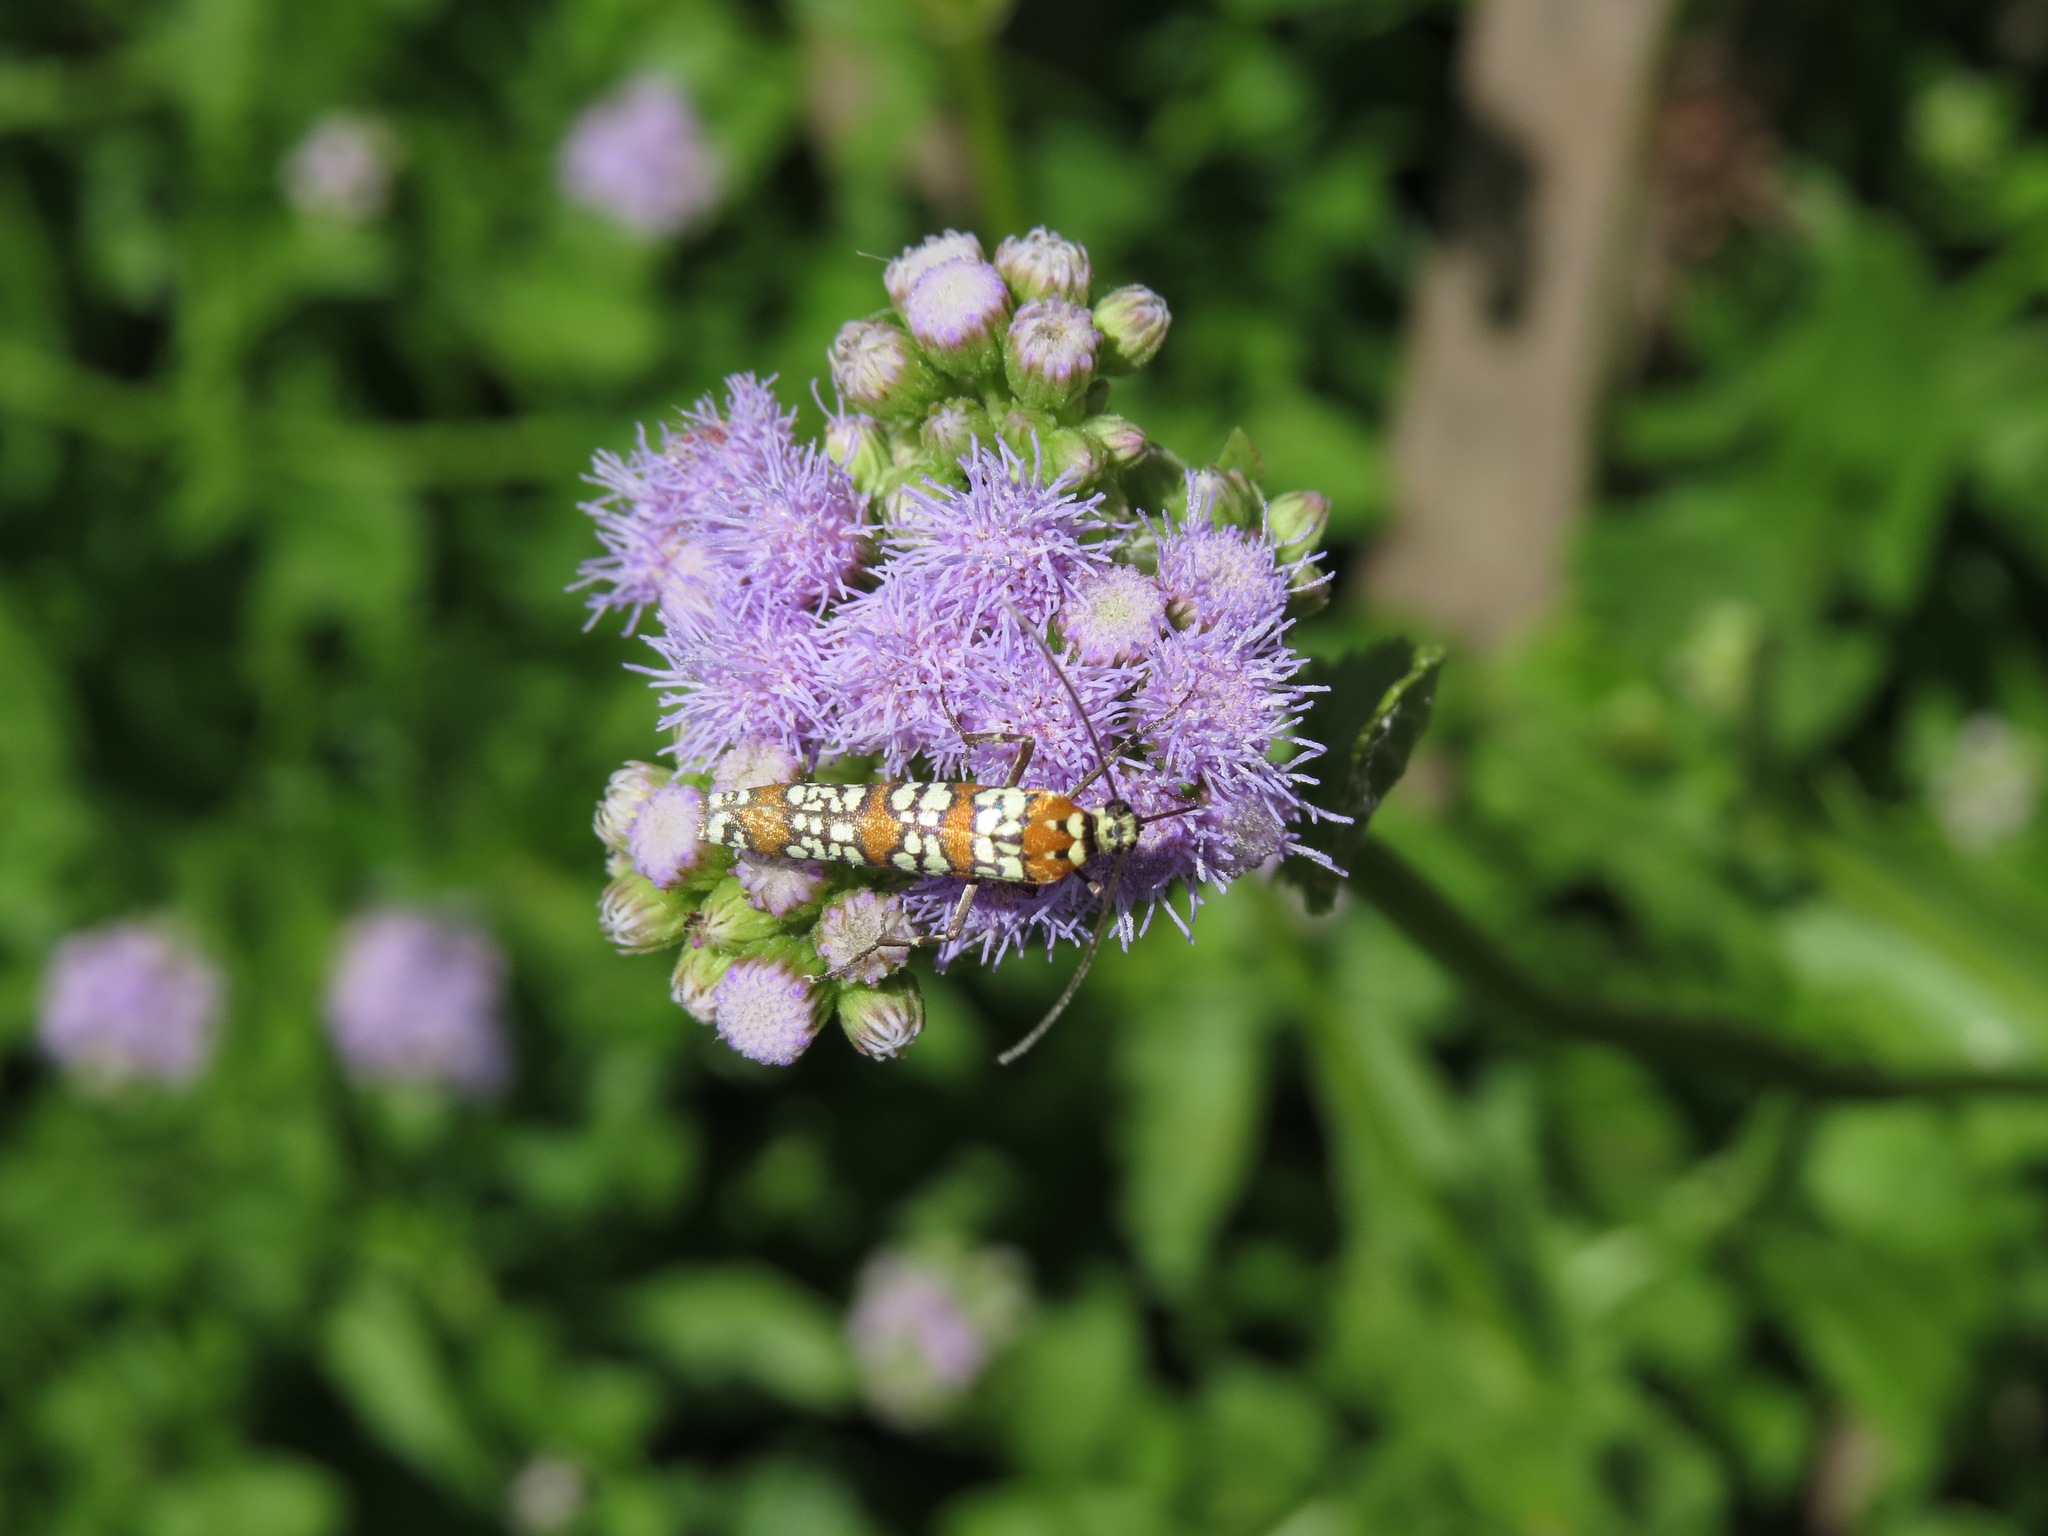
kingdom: Animalia
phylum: Arthropoda
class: Insecta
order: Lepidoptera
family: Attevidae
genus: Atteva
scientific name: Atteva punctella
